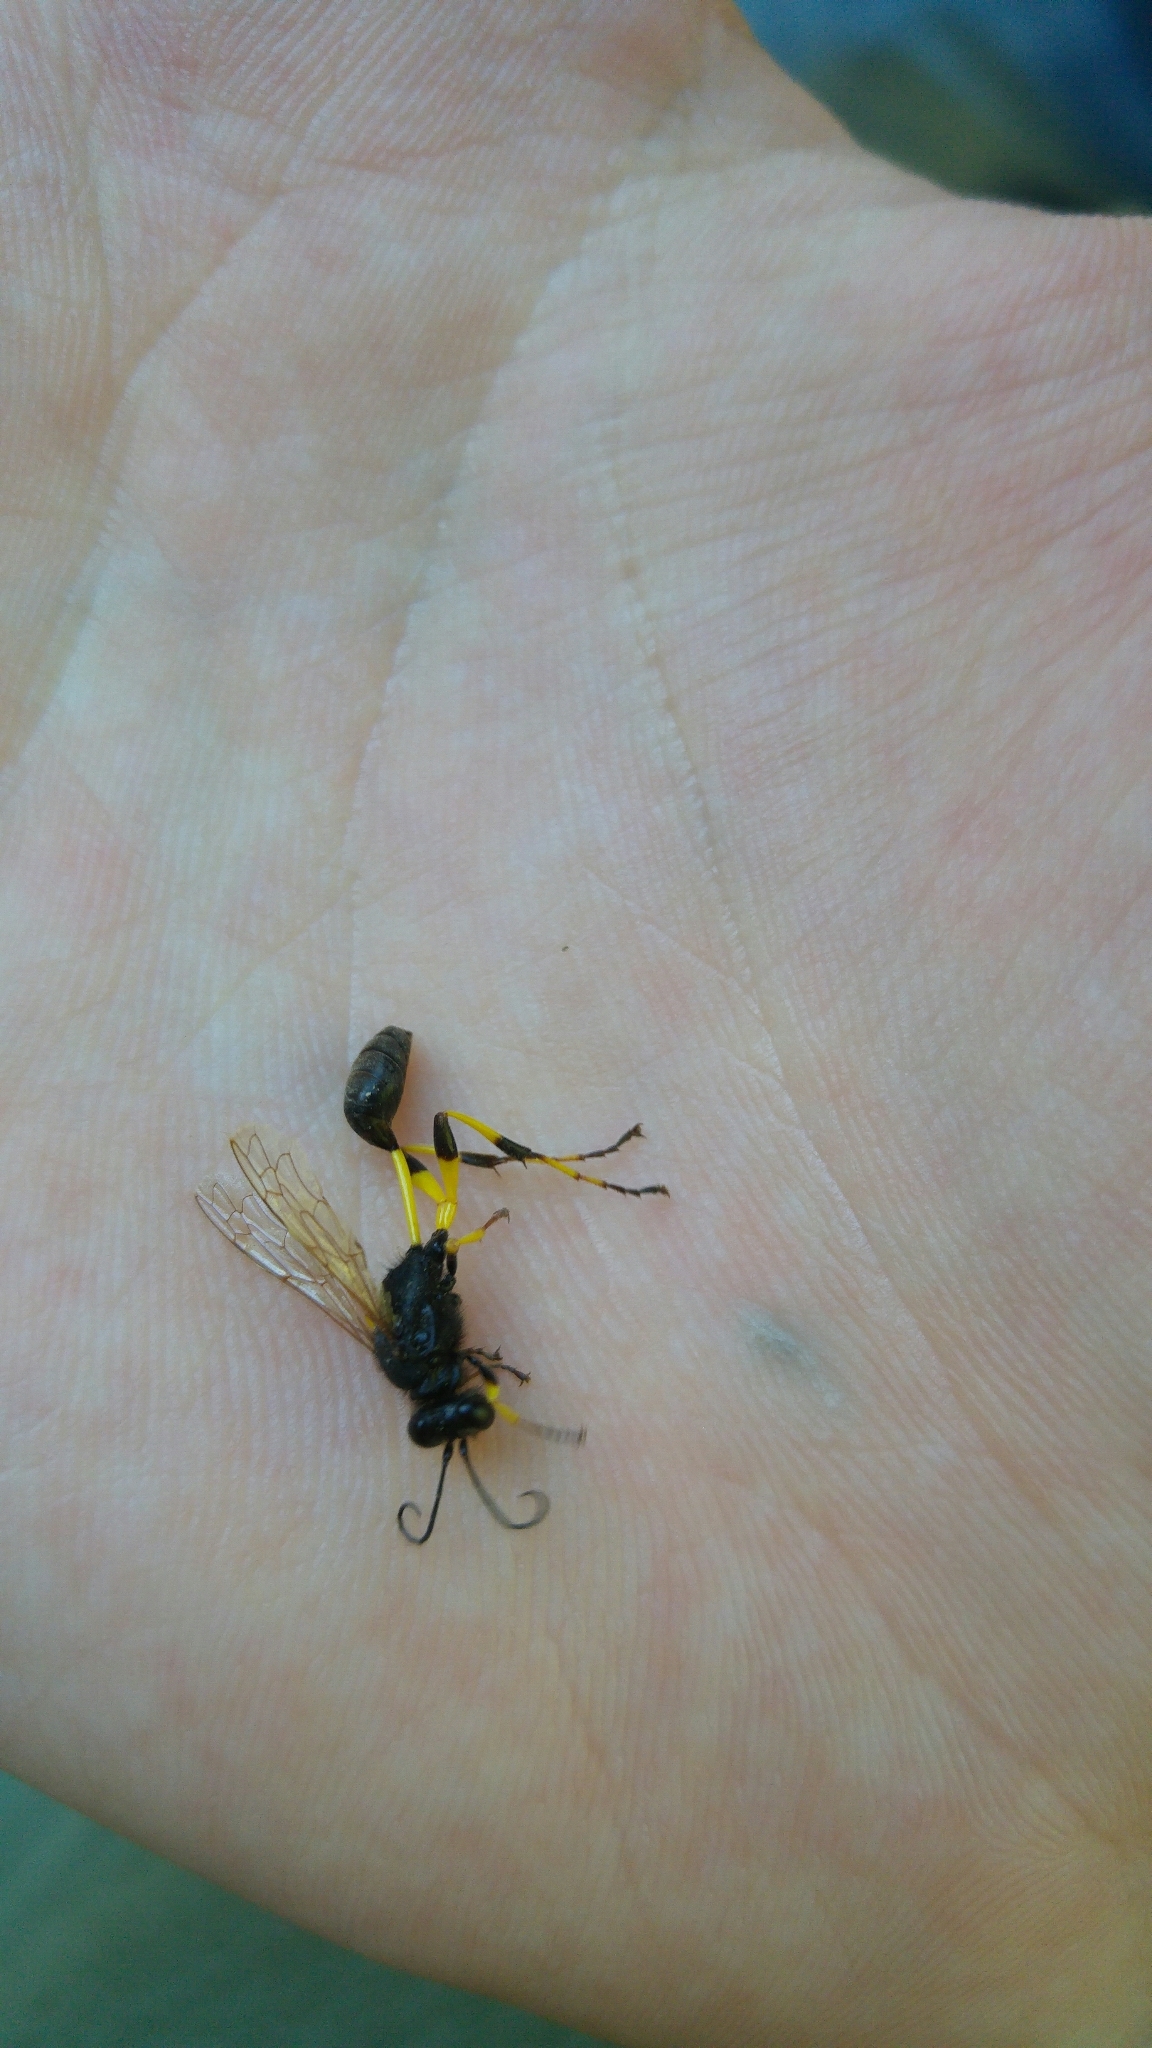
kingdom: Animalia
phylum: Arthropoda
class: Insecta
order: Hymenoptera
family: Sphecidae
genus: Sceliphron
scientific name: Sceliphron spirifex
